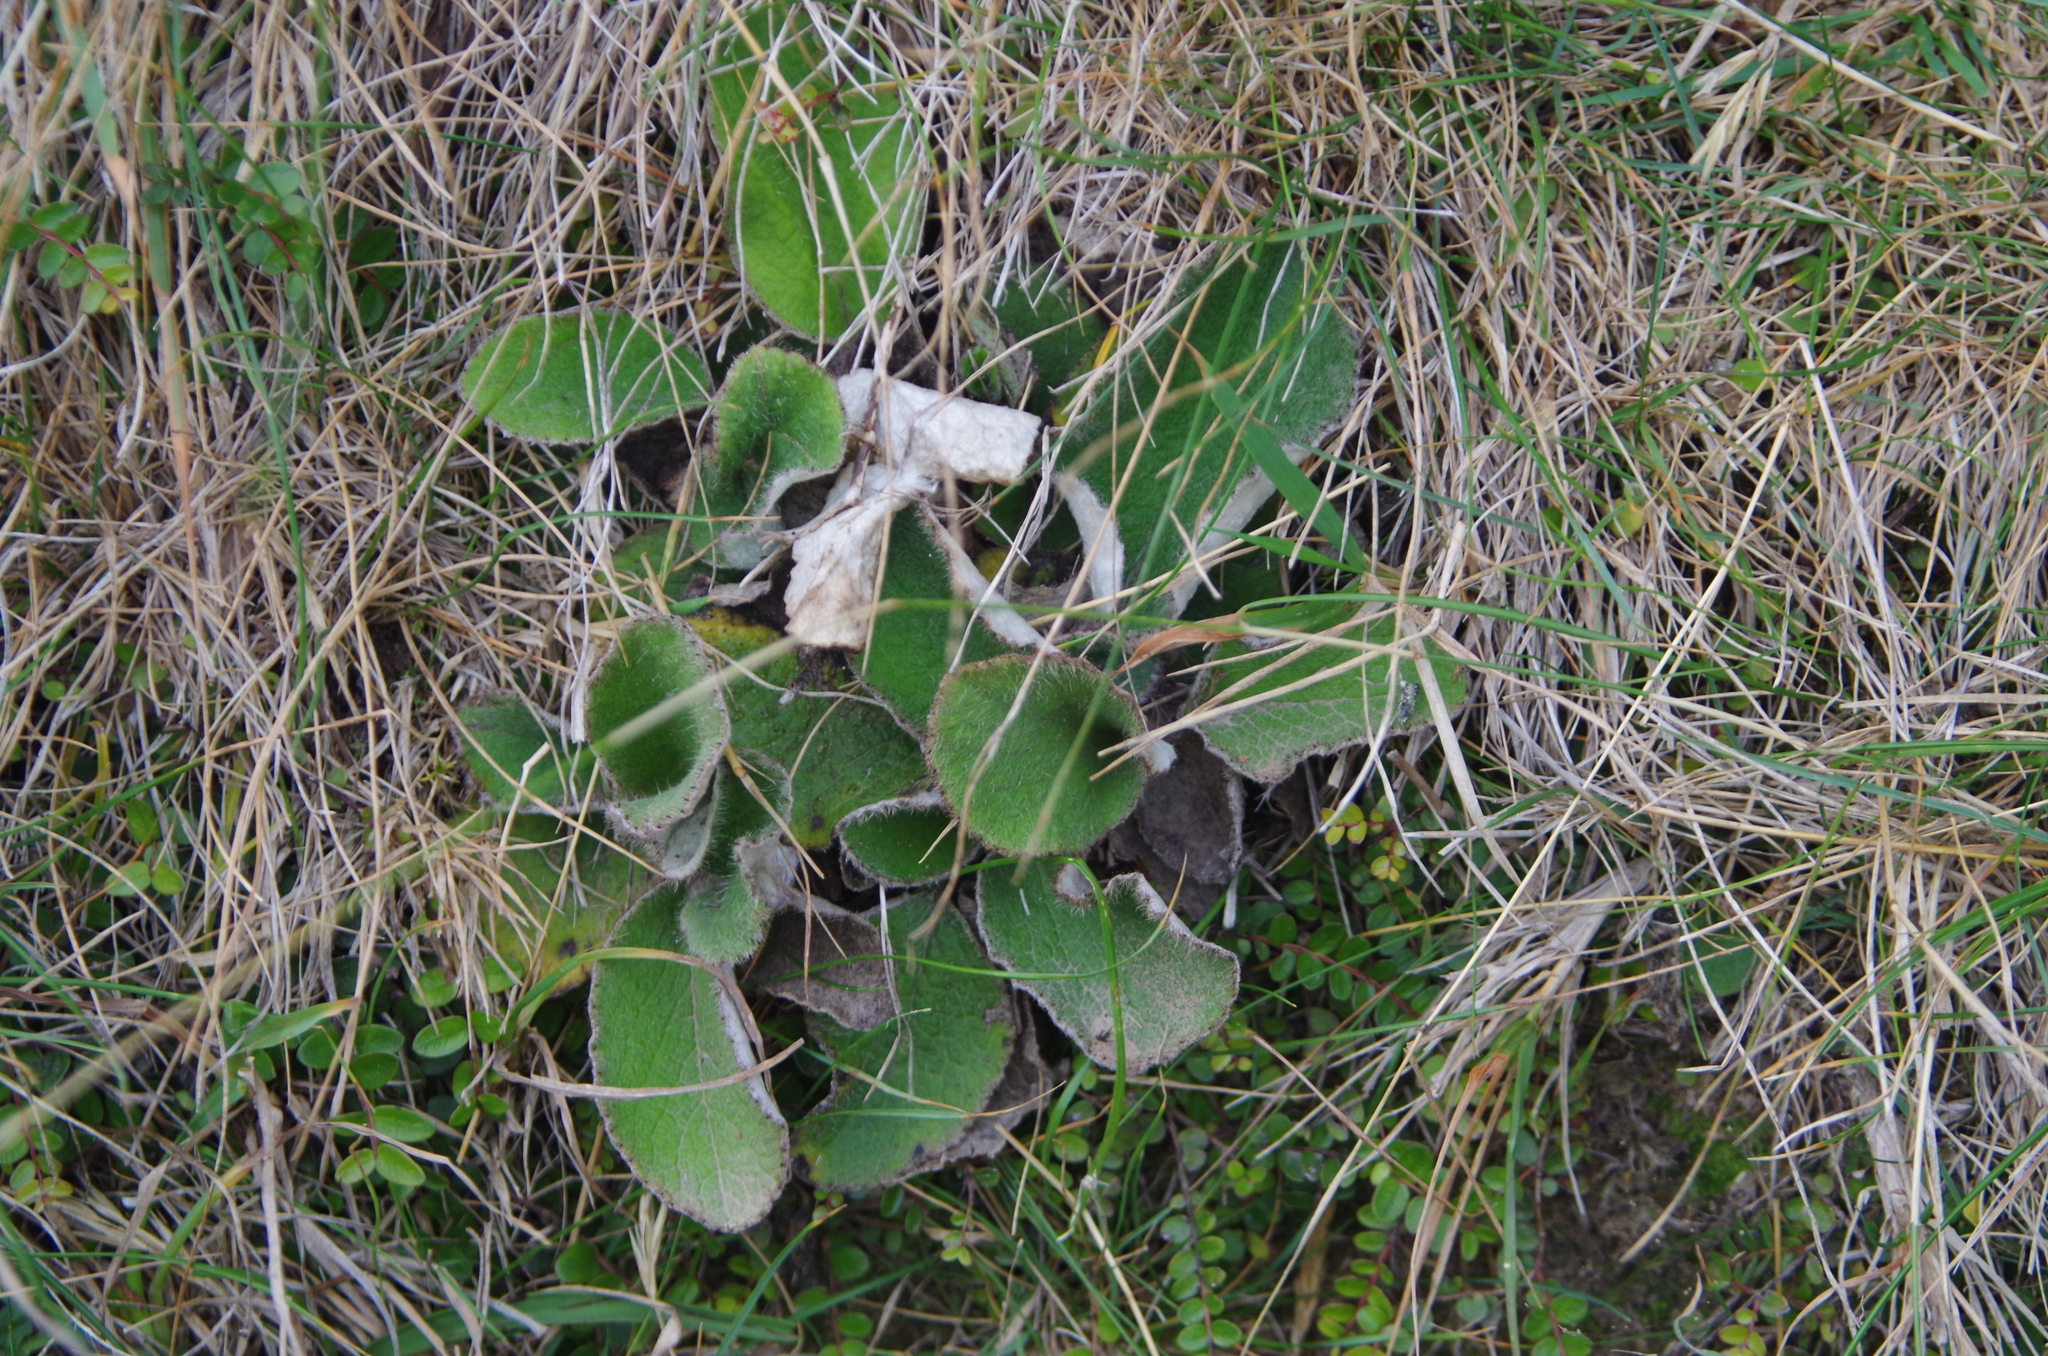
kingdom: Plantae
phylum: Tracheophyta
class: Magnoliopsida
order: Asterales
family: Asteraceae
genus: Brachyglottis
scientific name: Brachyglottis lagopus
